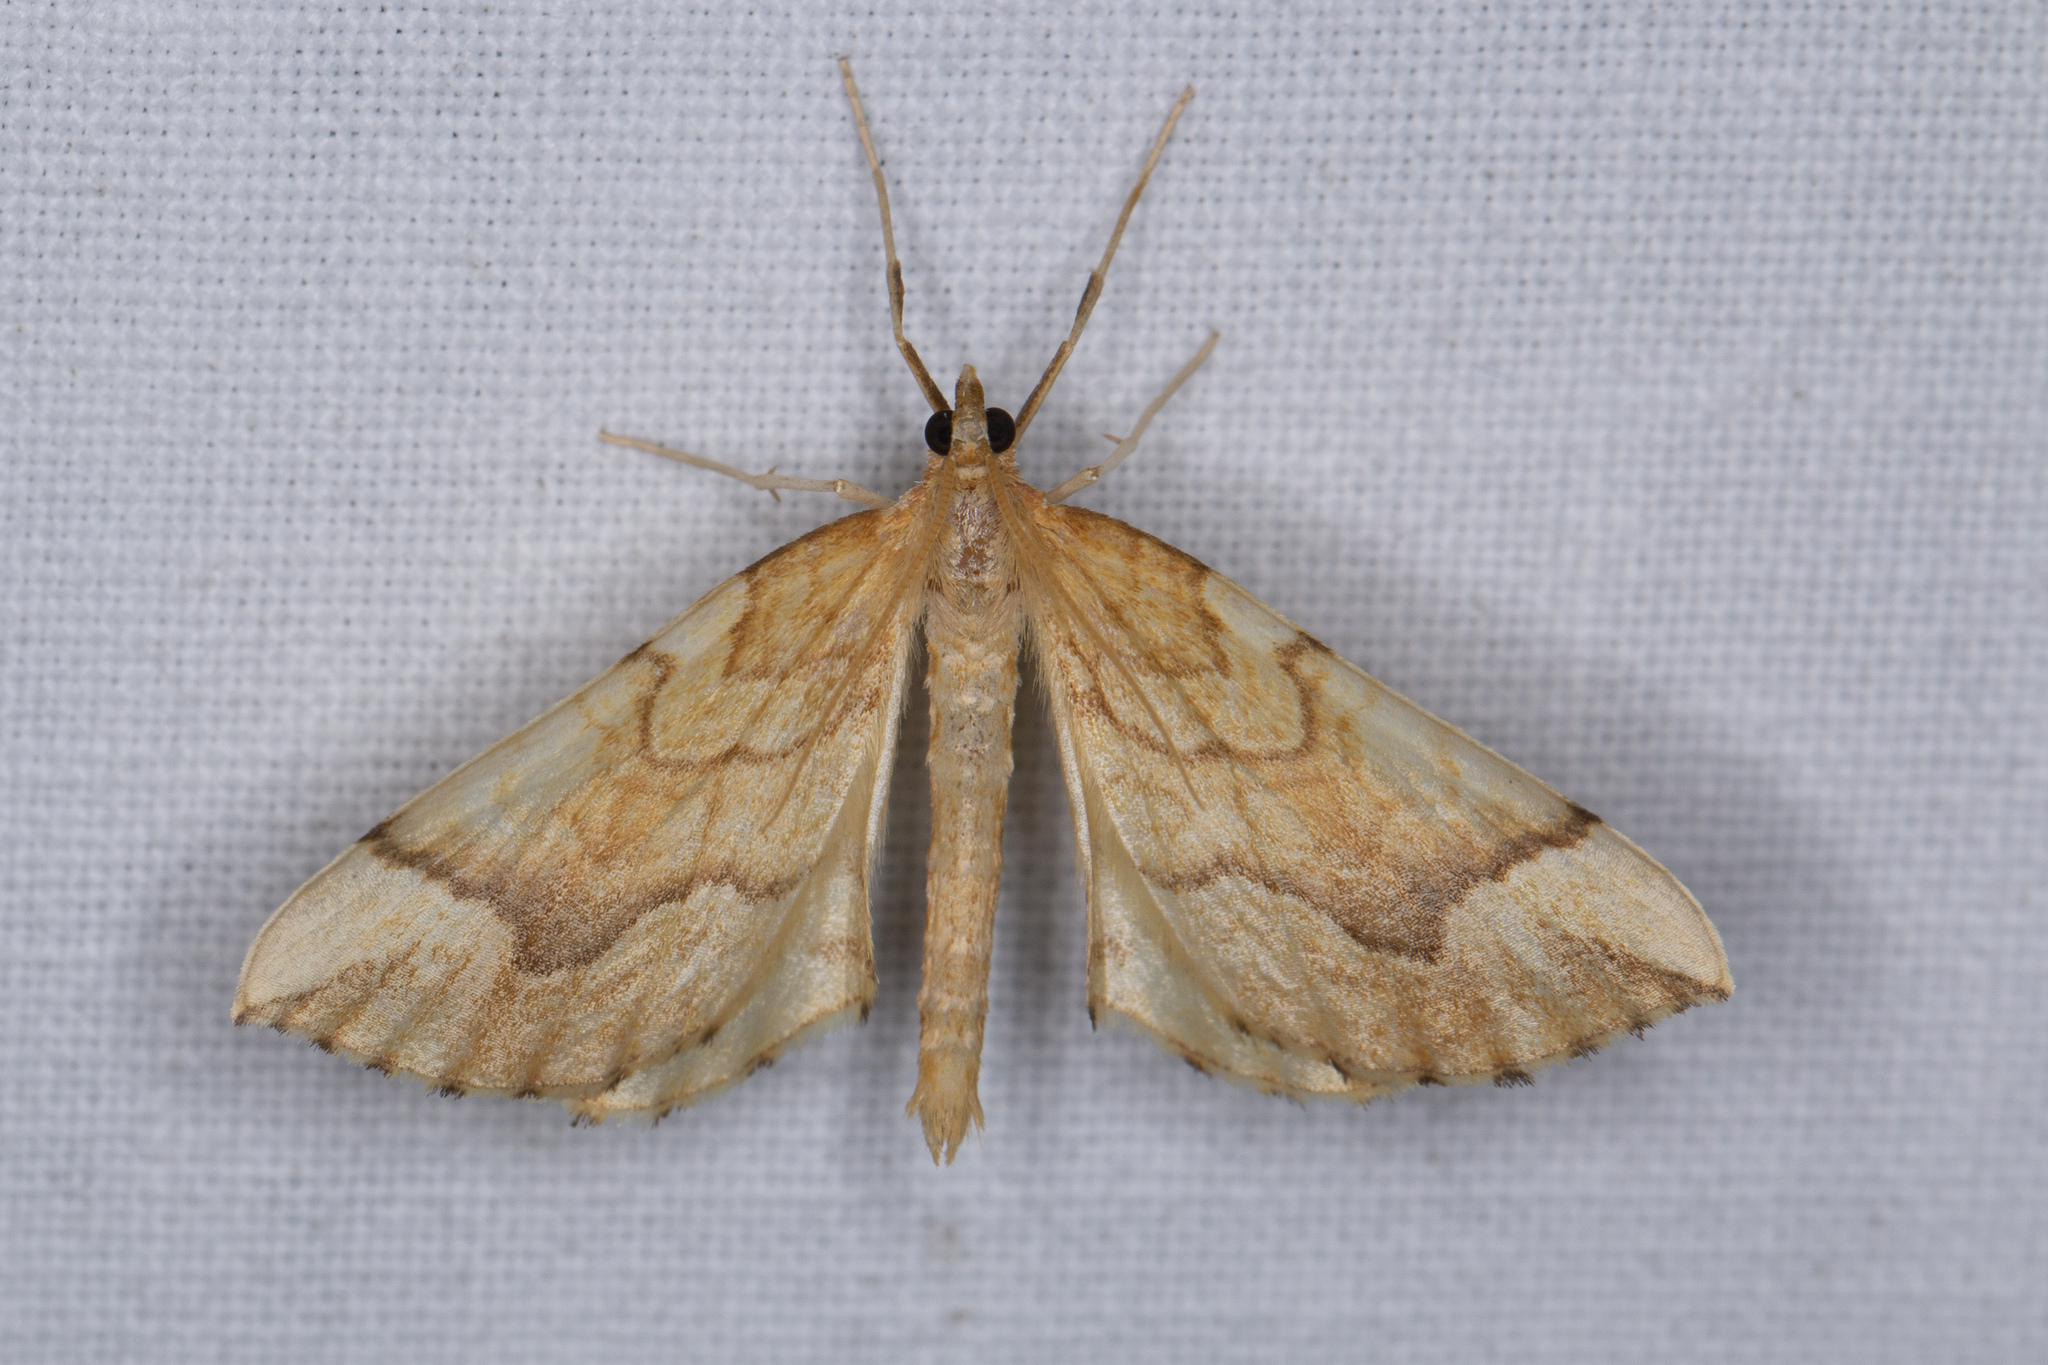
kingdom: Animalia
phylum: Arthropoda
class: Insecta
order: Lepidoptera
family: Geometridae
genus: Eulithis
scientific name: Eulithis mellinata
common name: Spinach
